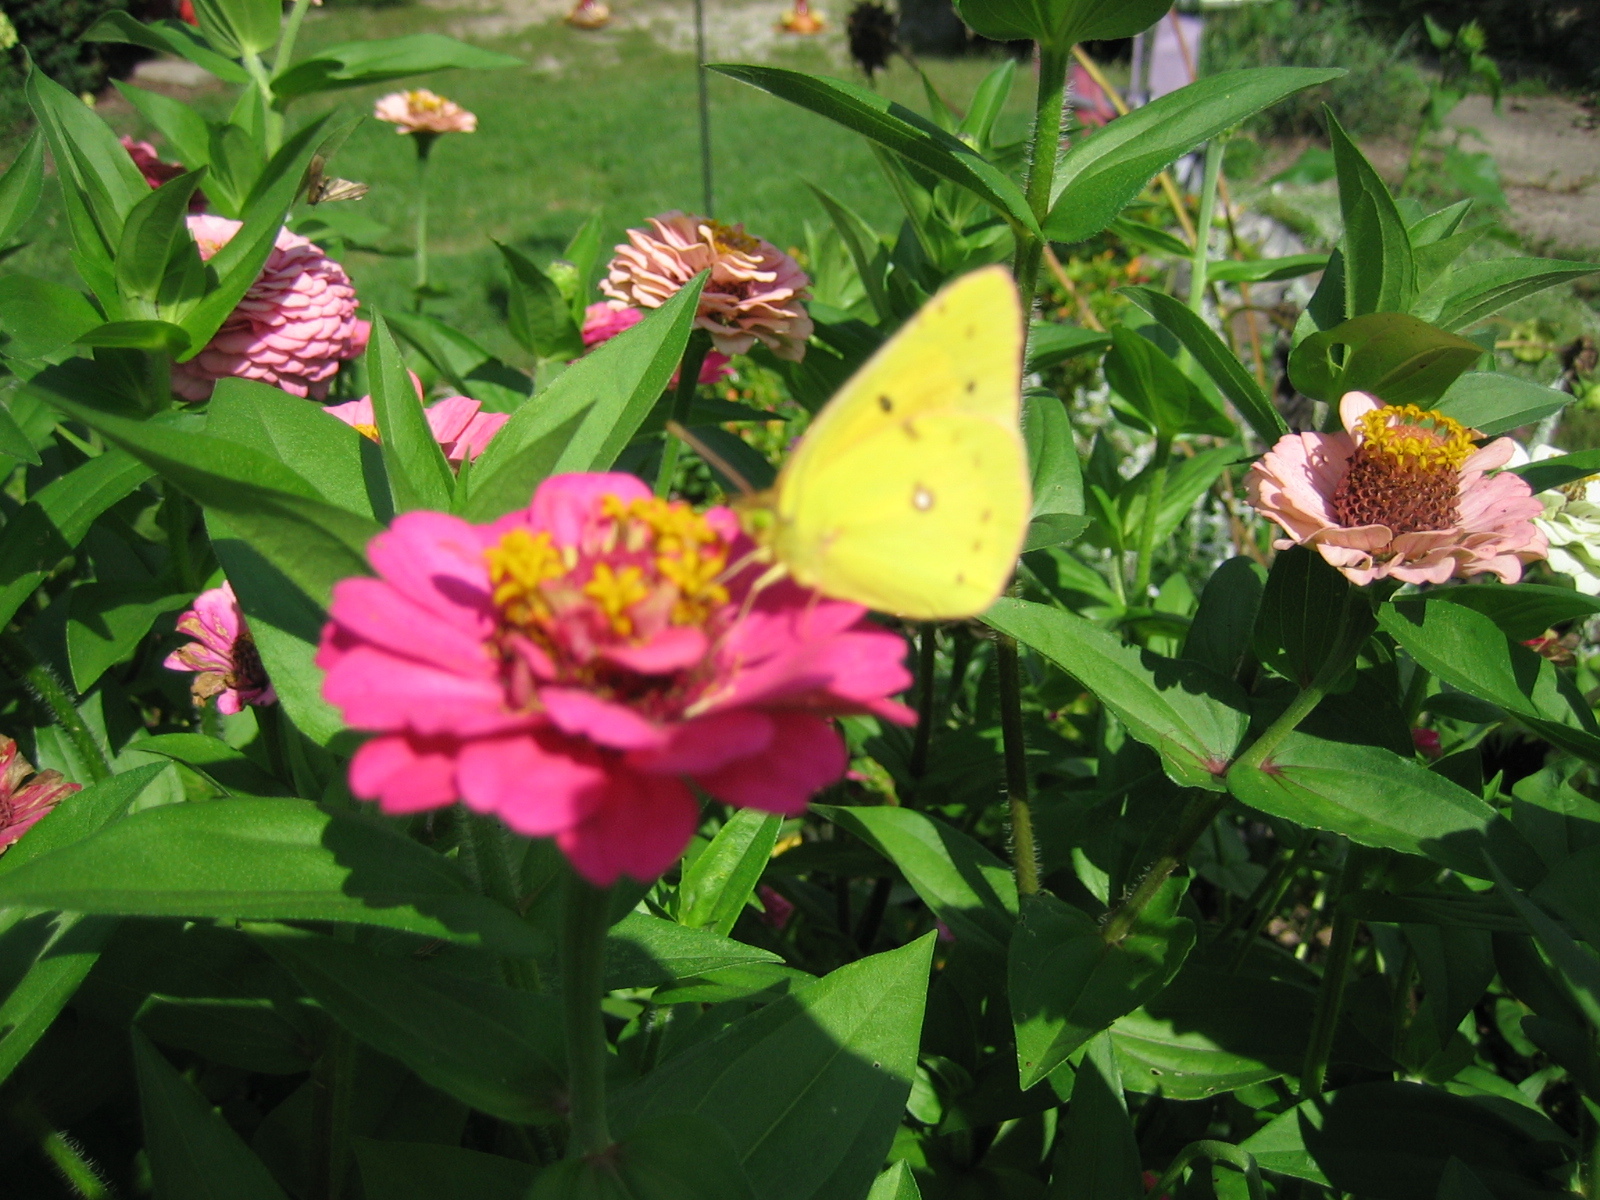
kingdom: Animalia
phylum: Arthropoda
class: Insecta
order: Lepidoptera
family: Pieridae
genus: Colias
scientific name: Colias eurytheme
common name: Alfalfa butterfly
